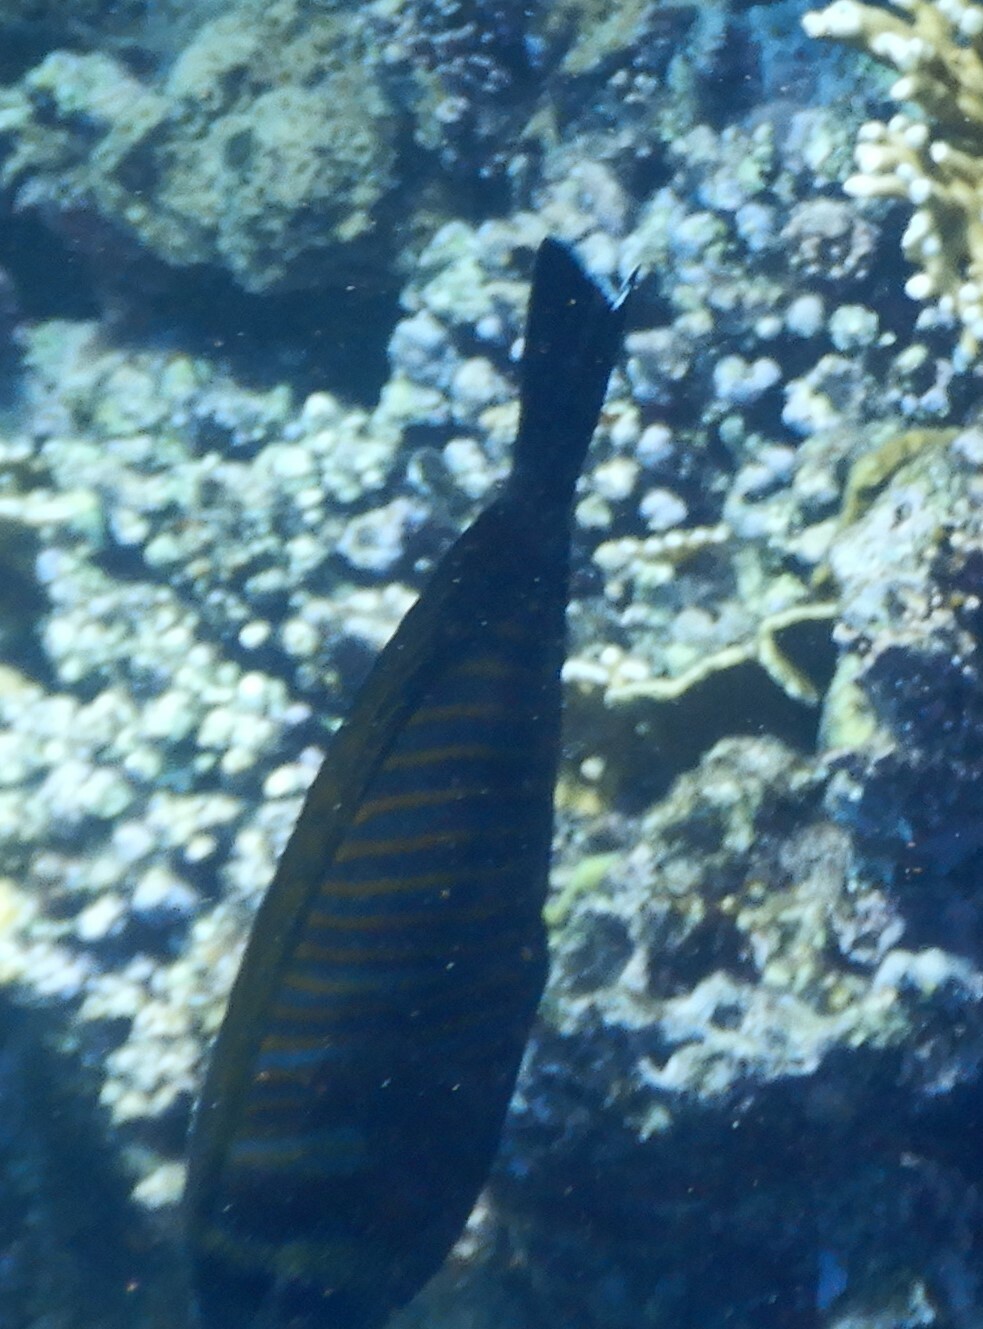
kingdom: Animalia
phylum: Chordata
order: Perciformes
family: Acanthuridae
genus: Zebrasoma
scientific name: Zebrasoma desjardinii
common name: Desjardin's sailfin tang
